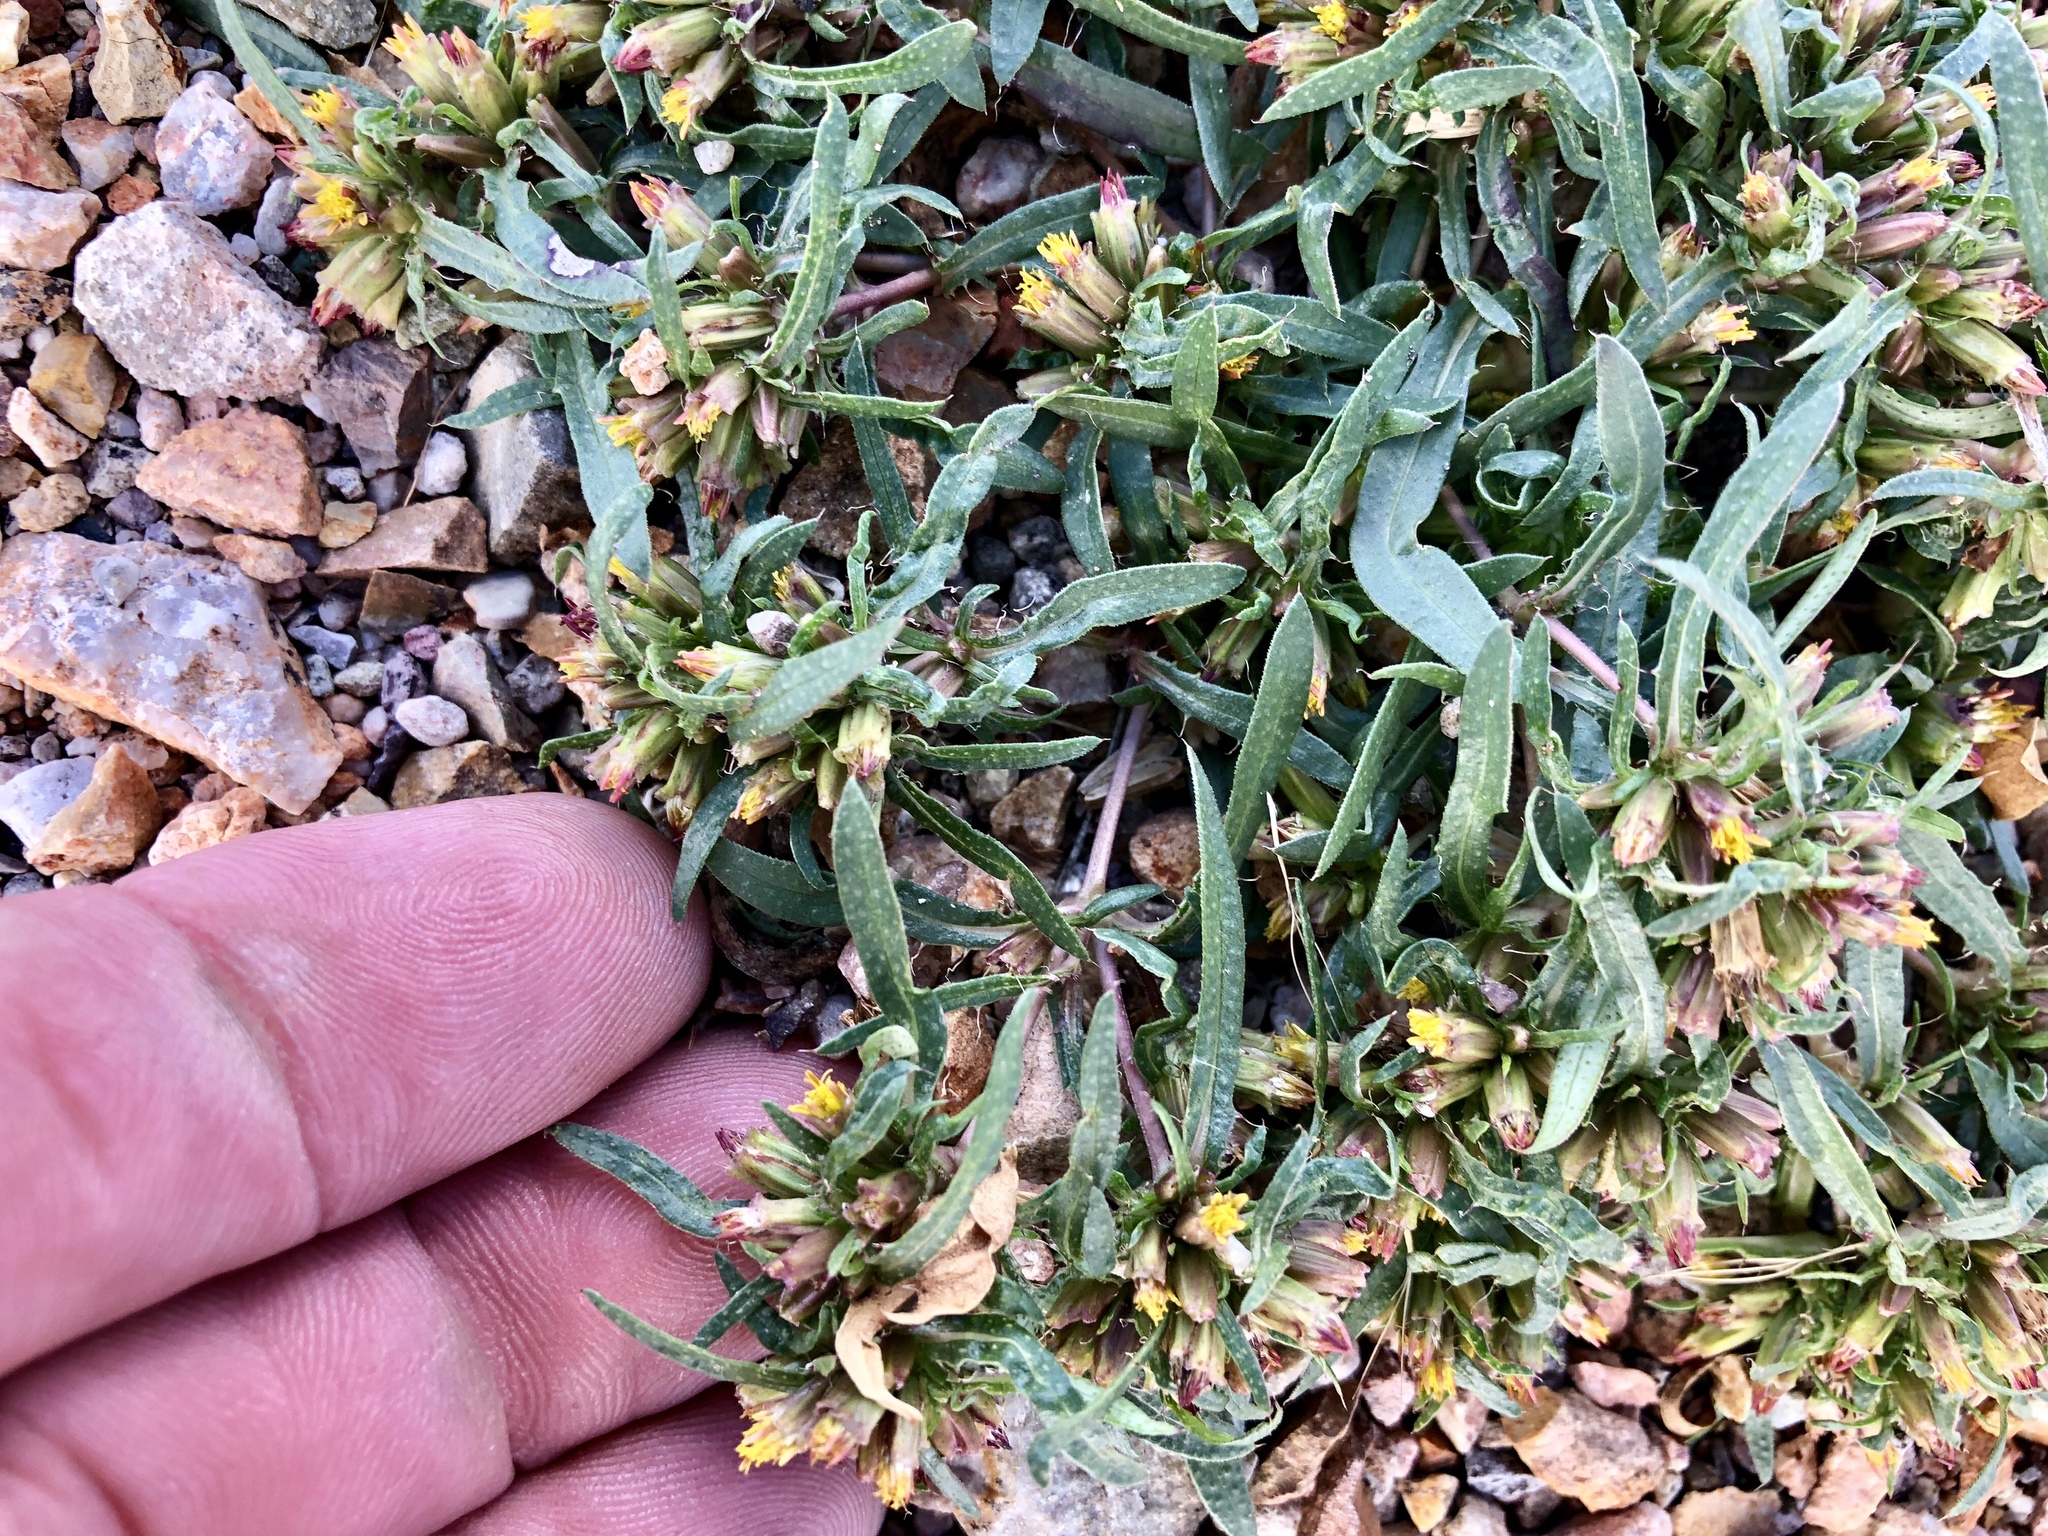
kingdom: Plantae
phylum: Tracheophyta
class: Magnoliopsida
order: Asterales
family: Asteraceae
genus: Pectis
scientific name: Pectis prostrata
